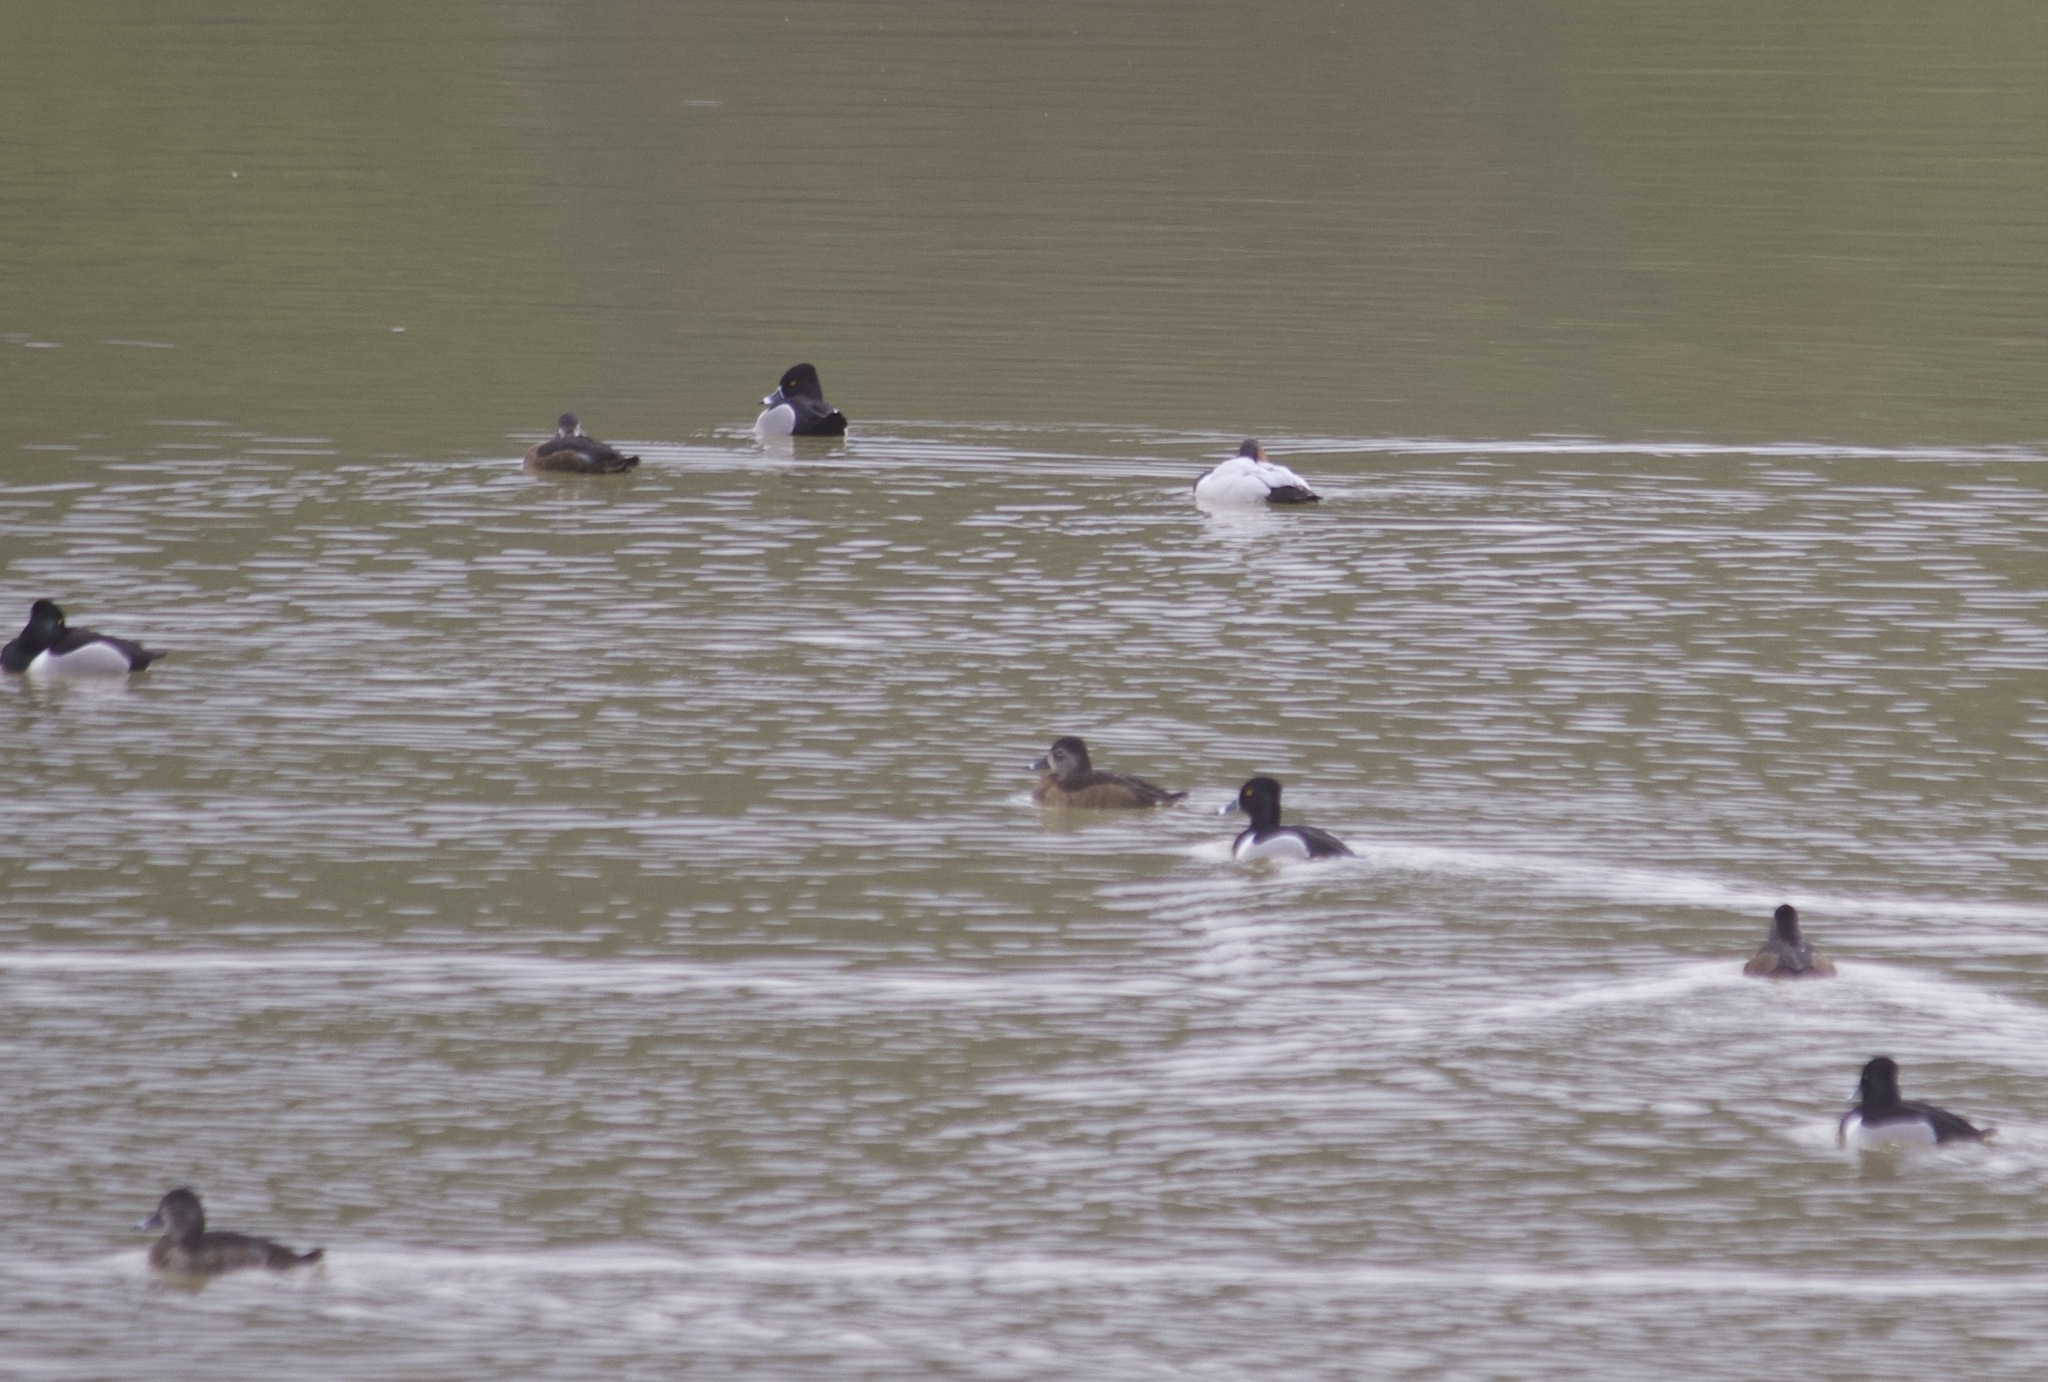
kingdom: Animalia
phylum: Chordata
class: Aves
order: Anseriformes
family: Anatidae
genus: Aythya
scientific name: Aythya collaris
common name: Ring-necked duck
